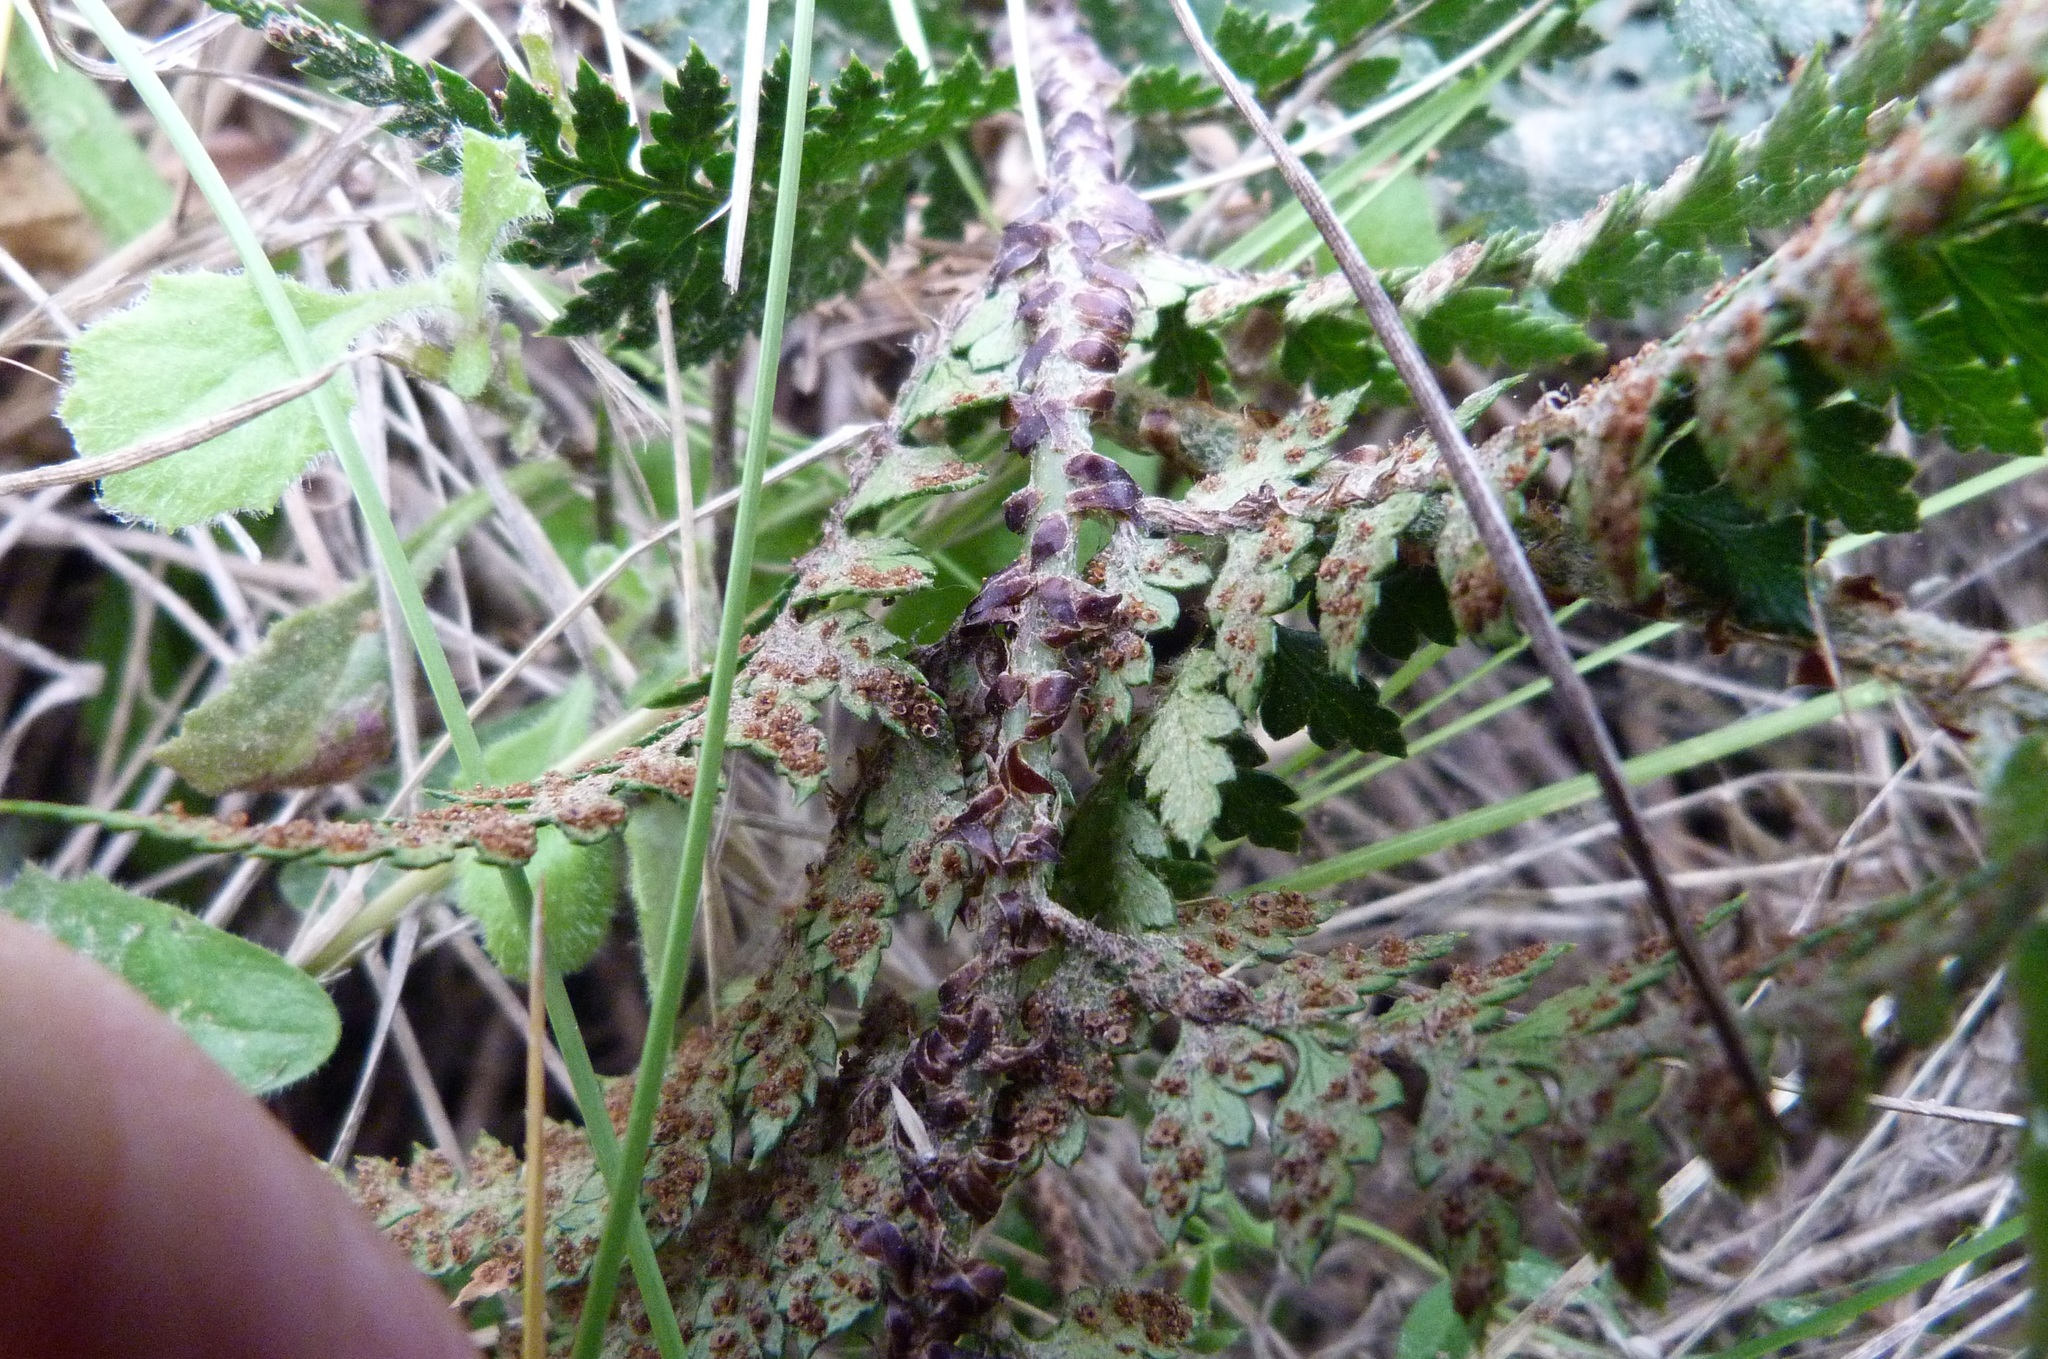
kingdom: Plantae
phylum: Tracheophyta
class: Polypodiopsida
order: Polypodiales
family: Dryopteridaceae
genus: Polystichum
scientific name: Polystichum oculatum
